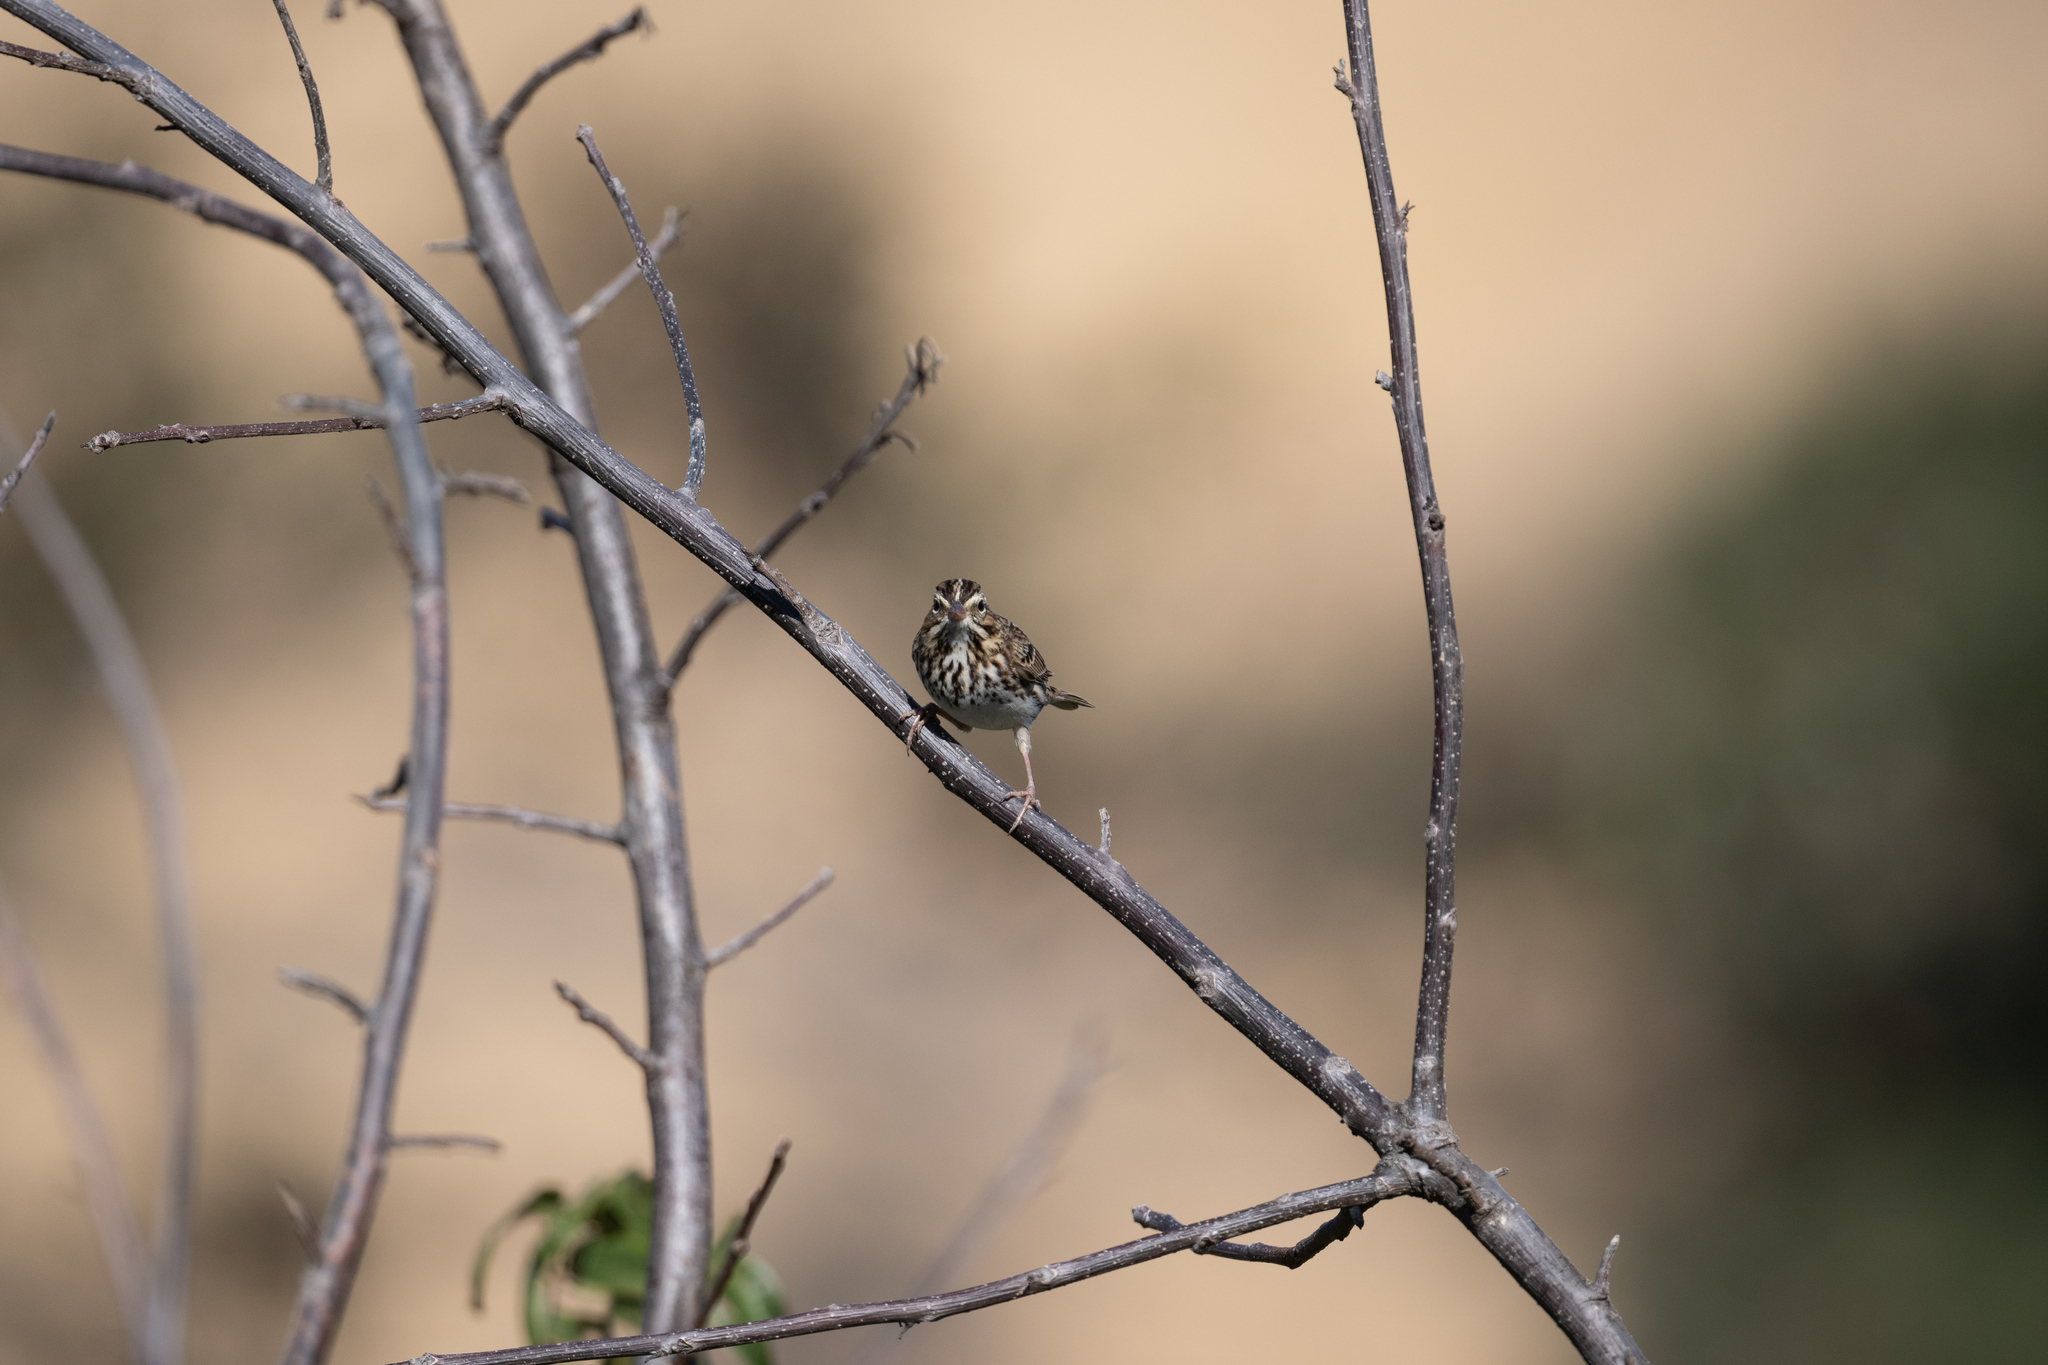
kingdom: Animalia
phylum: Chordata
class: Aves
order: Passeriformes
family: Passerellidae
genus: Passerculus
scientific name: Passerculus sandwichensis
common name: Savannah sparrow
